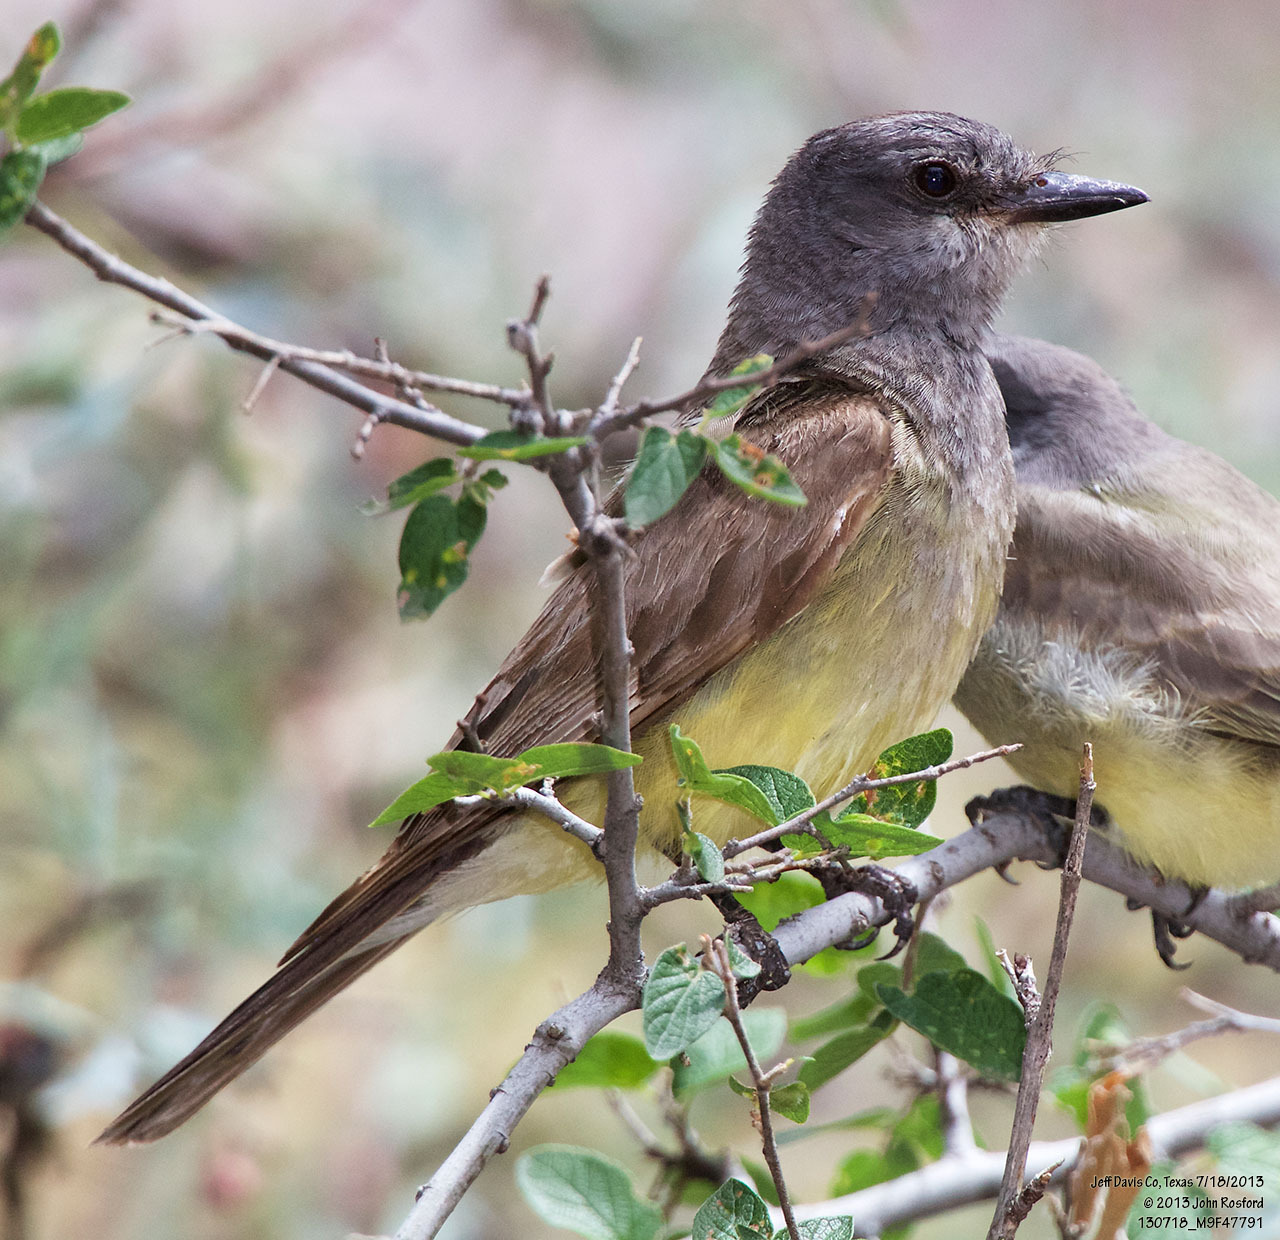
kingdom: Animalia
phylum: Chordata
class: Aves
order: Passeriformes
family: Tyrannidae
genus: Tyrannus
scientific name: Tyrannus vociferans
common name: Cassin's kingbird
